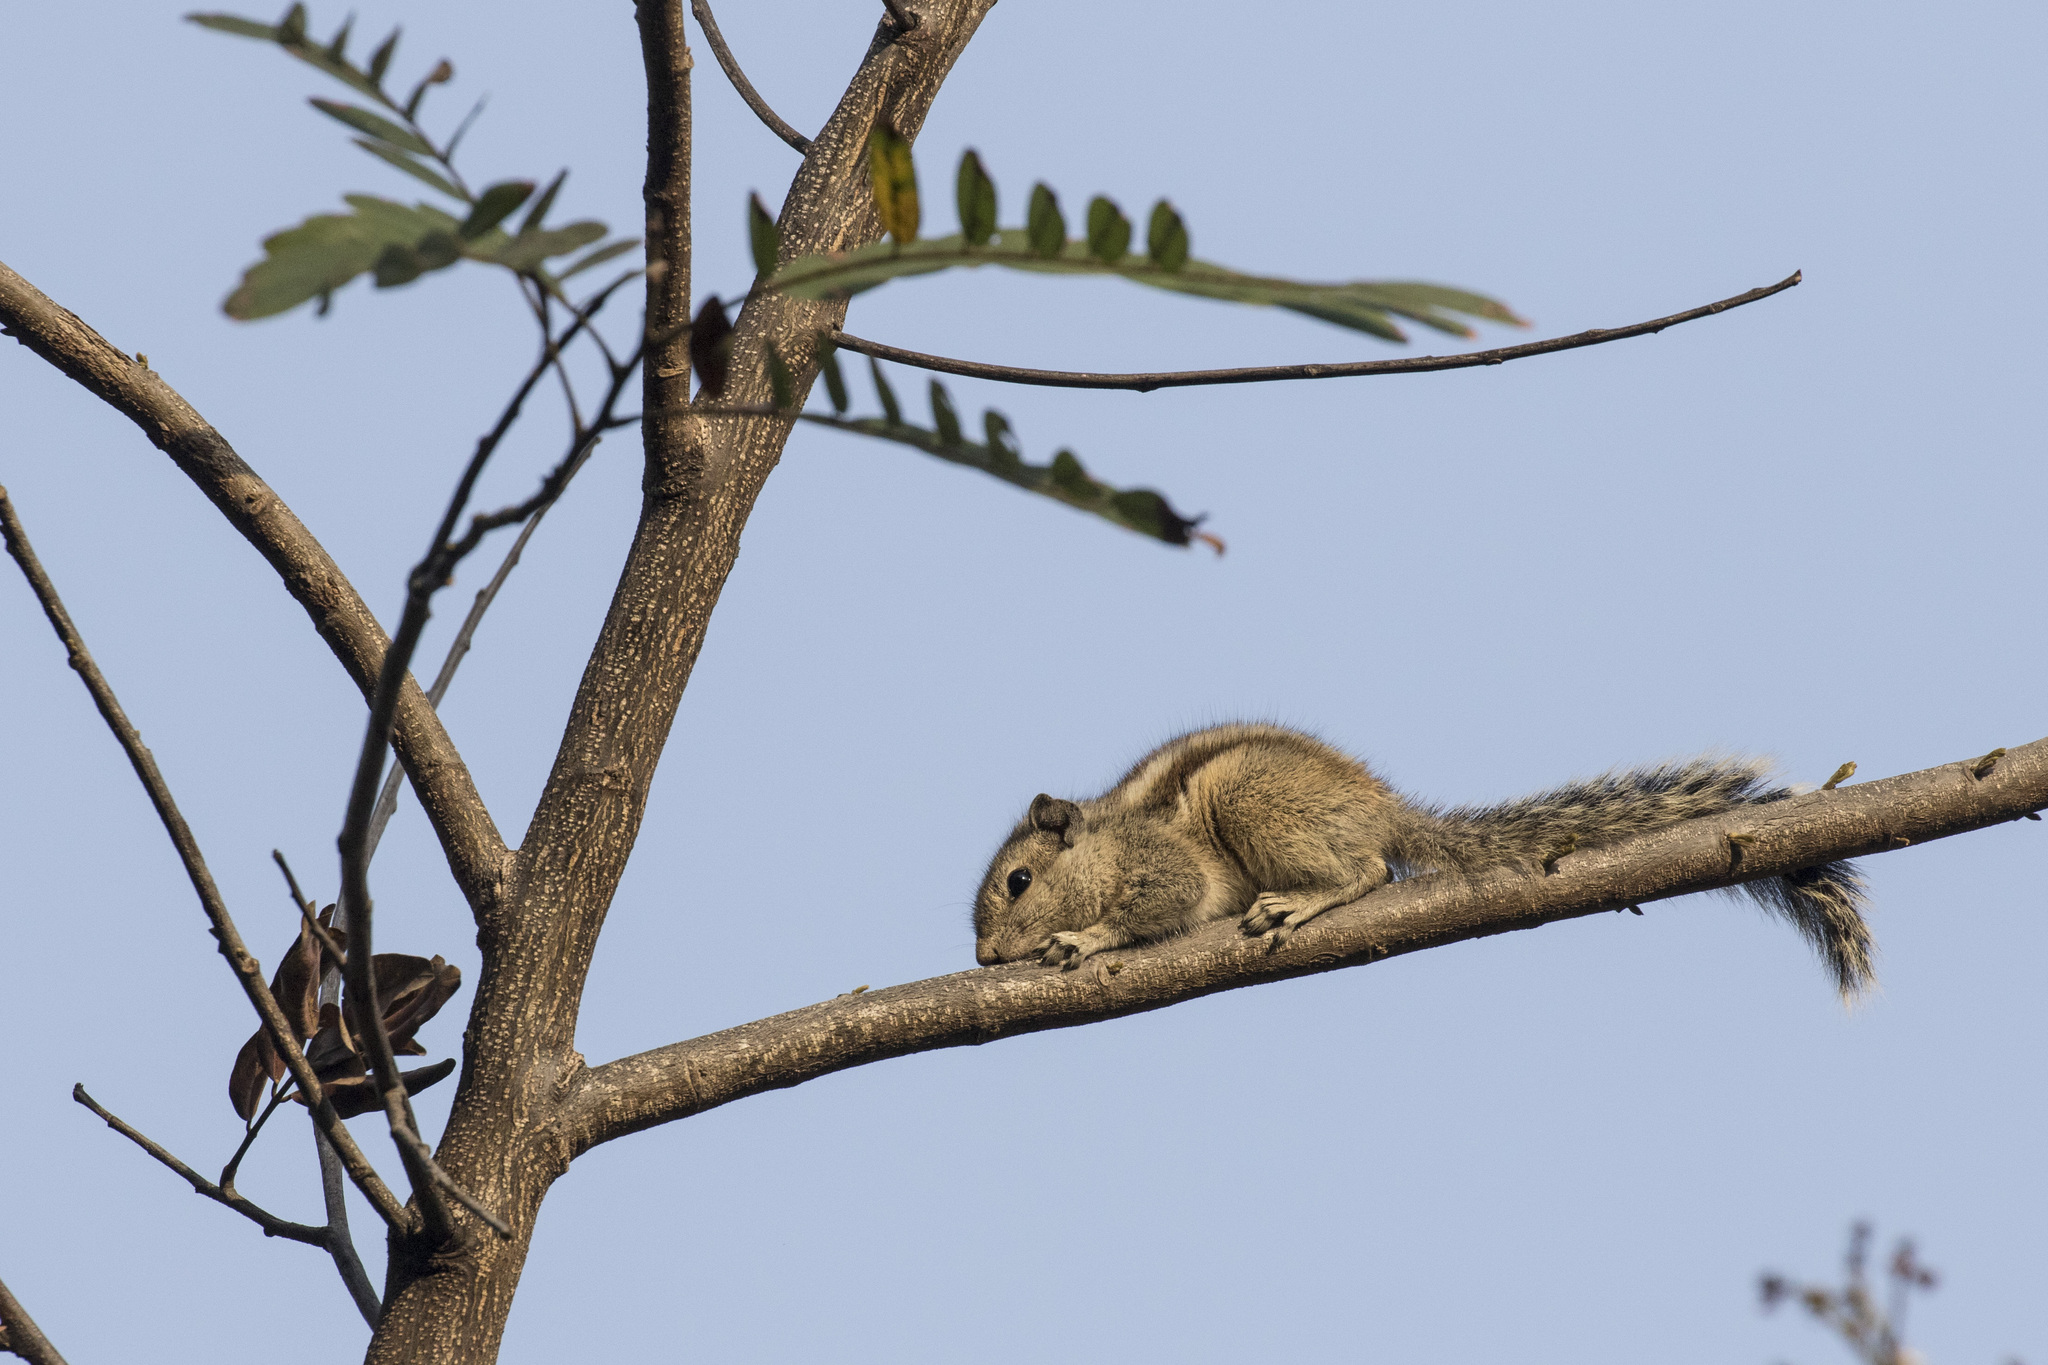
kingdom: Animalia
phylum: Chordata
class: Mammalia
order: Rodentia
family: Sciuridae
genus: Funambulus
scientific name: Funambulus pennantii
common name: Northern palm squirrel
